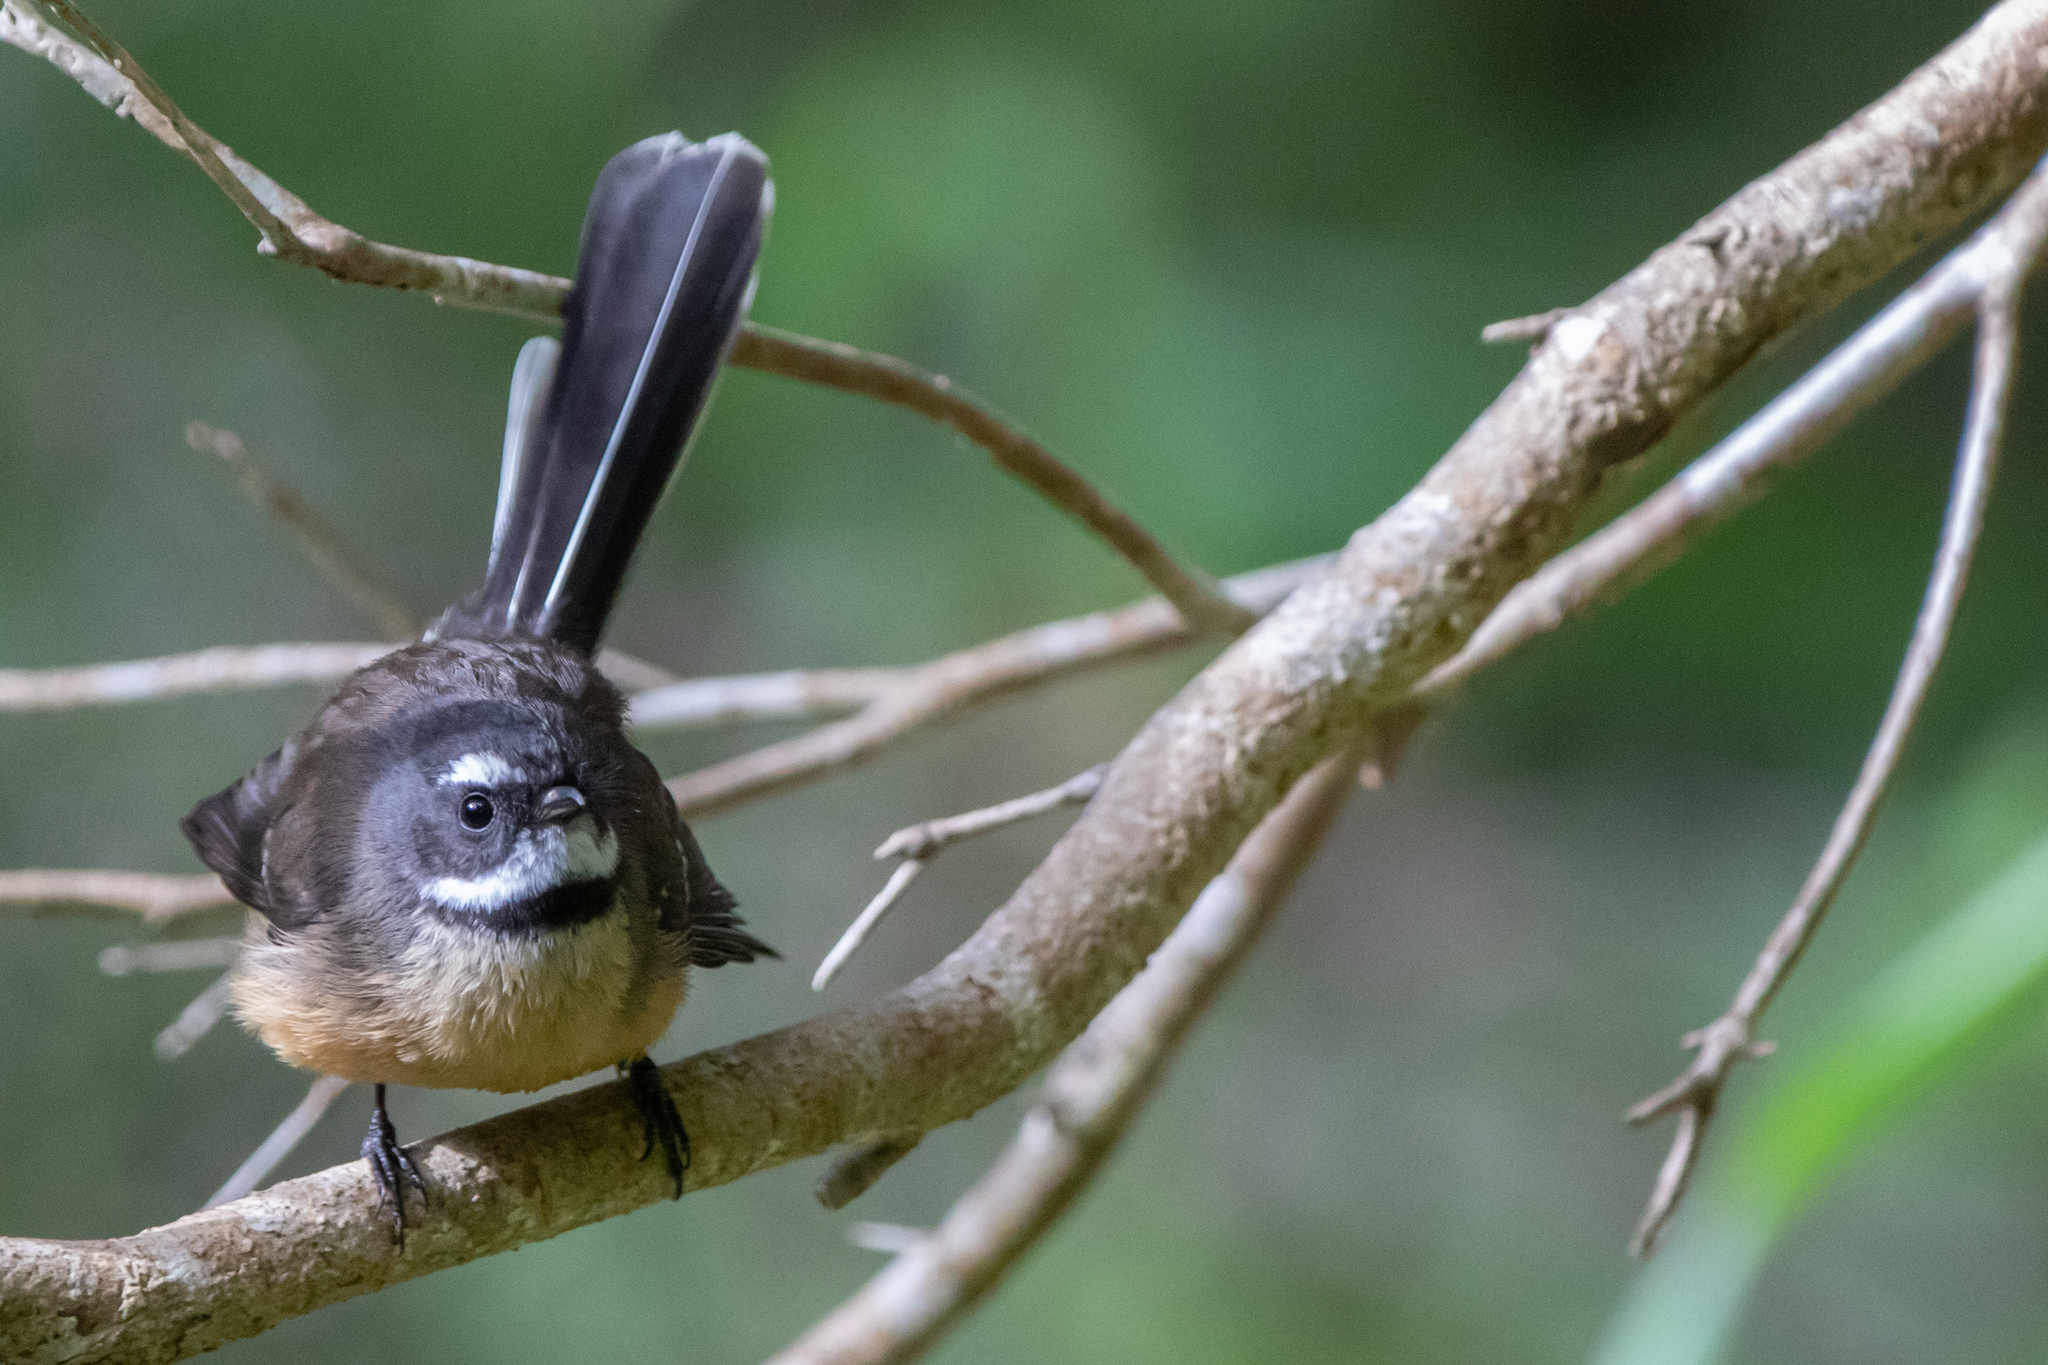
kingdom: Animalia
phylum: Chordata
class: Aves
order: Passeriformes
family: Rhipiduridae
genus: Rhipidura
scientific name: Rhipidura fuliginosa
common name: New zealand fantail
